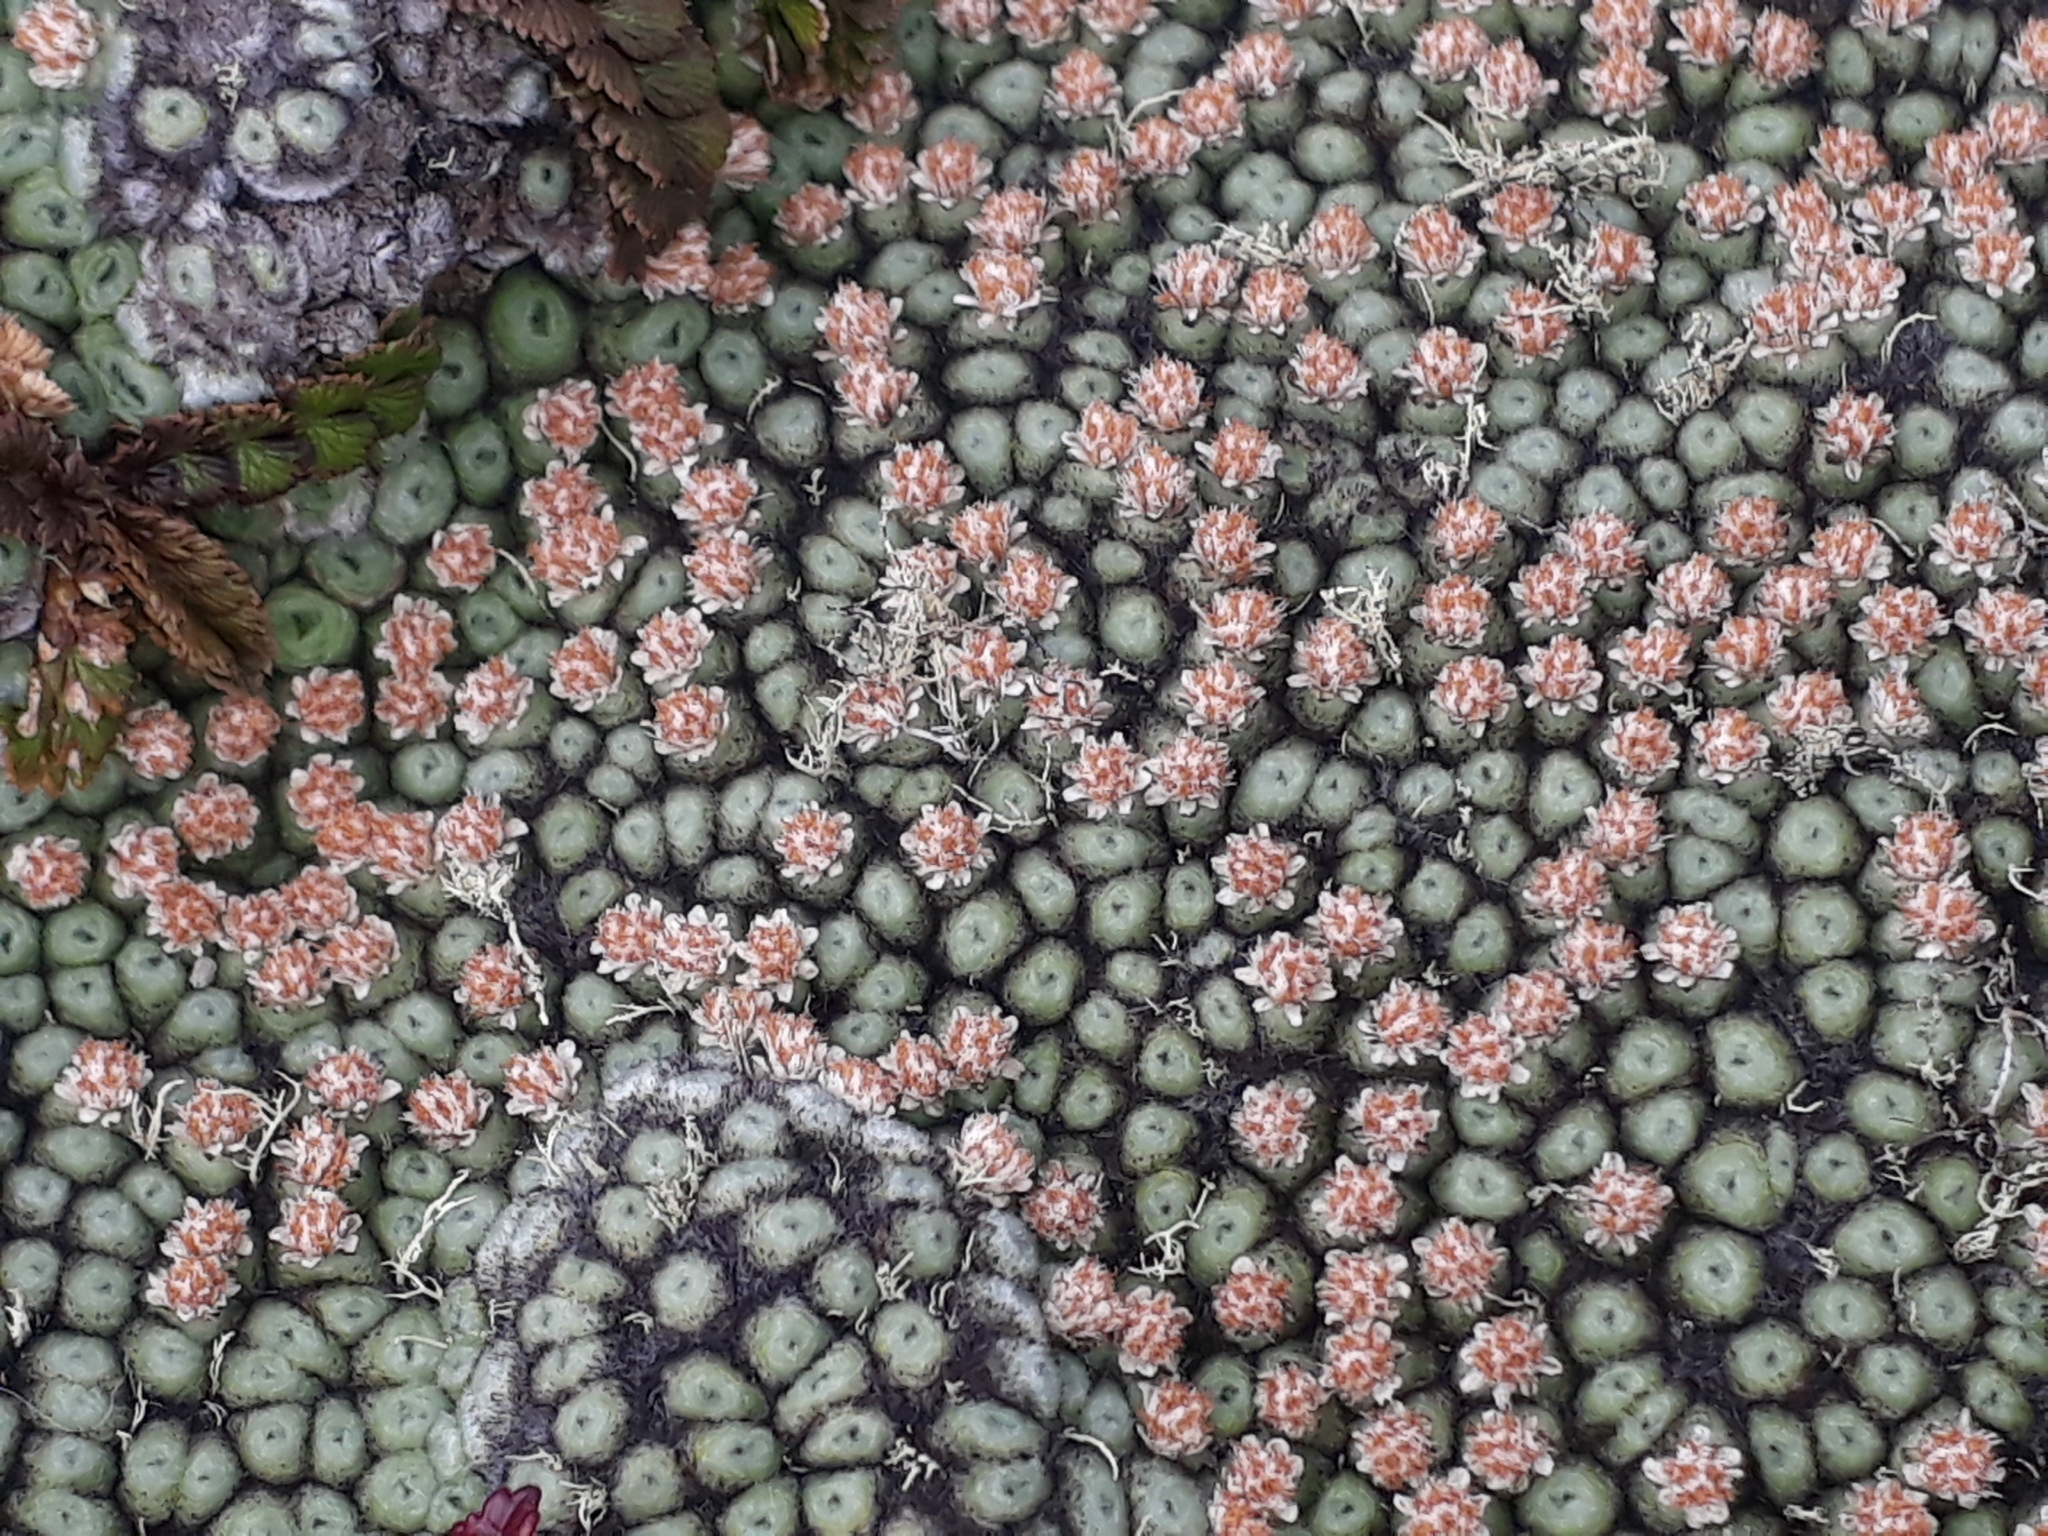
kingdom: Plantae
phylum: Tracheophyta
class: Magnoliopsida
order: Asterales
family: Asteraceae
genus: Raoulia
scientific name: Raoulia rubra
